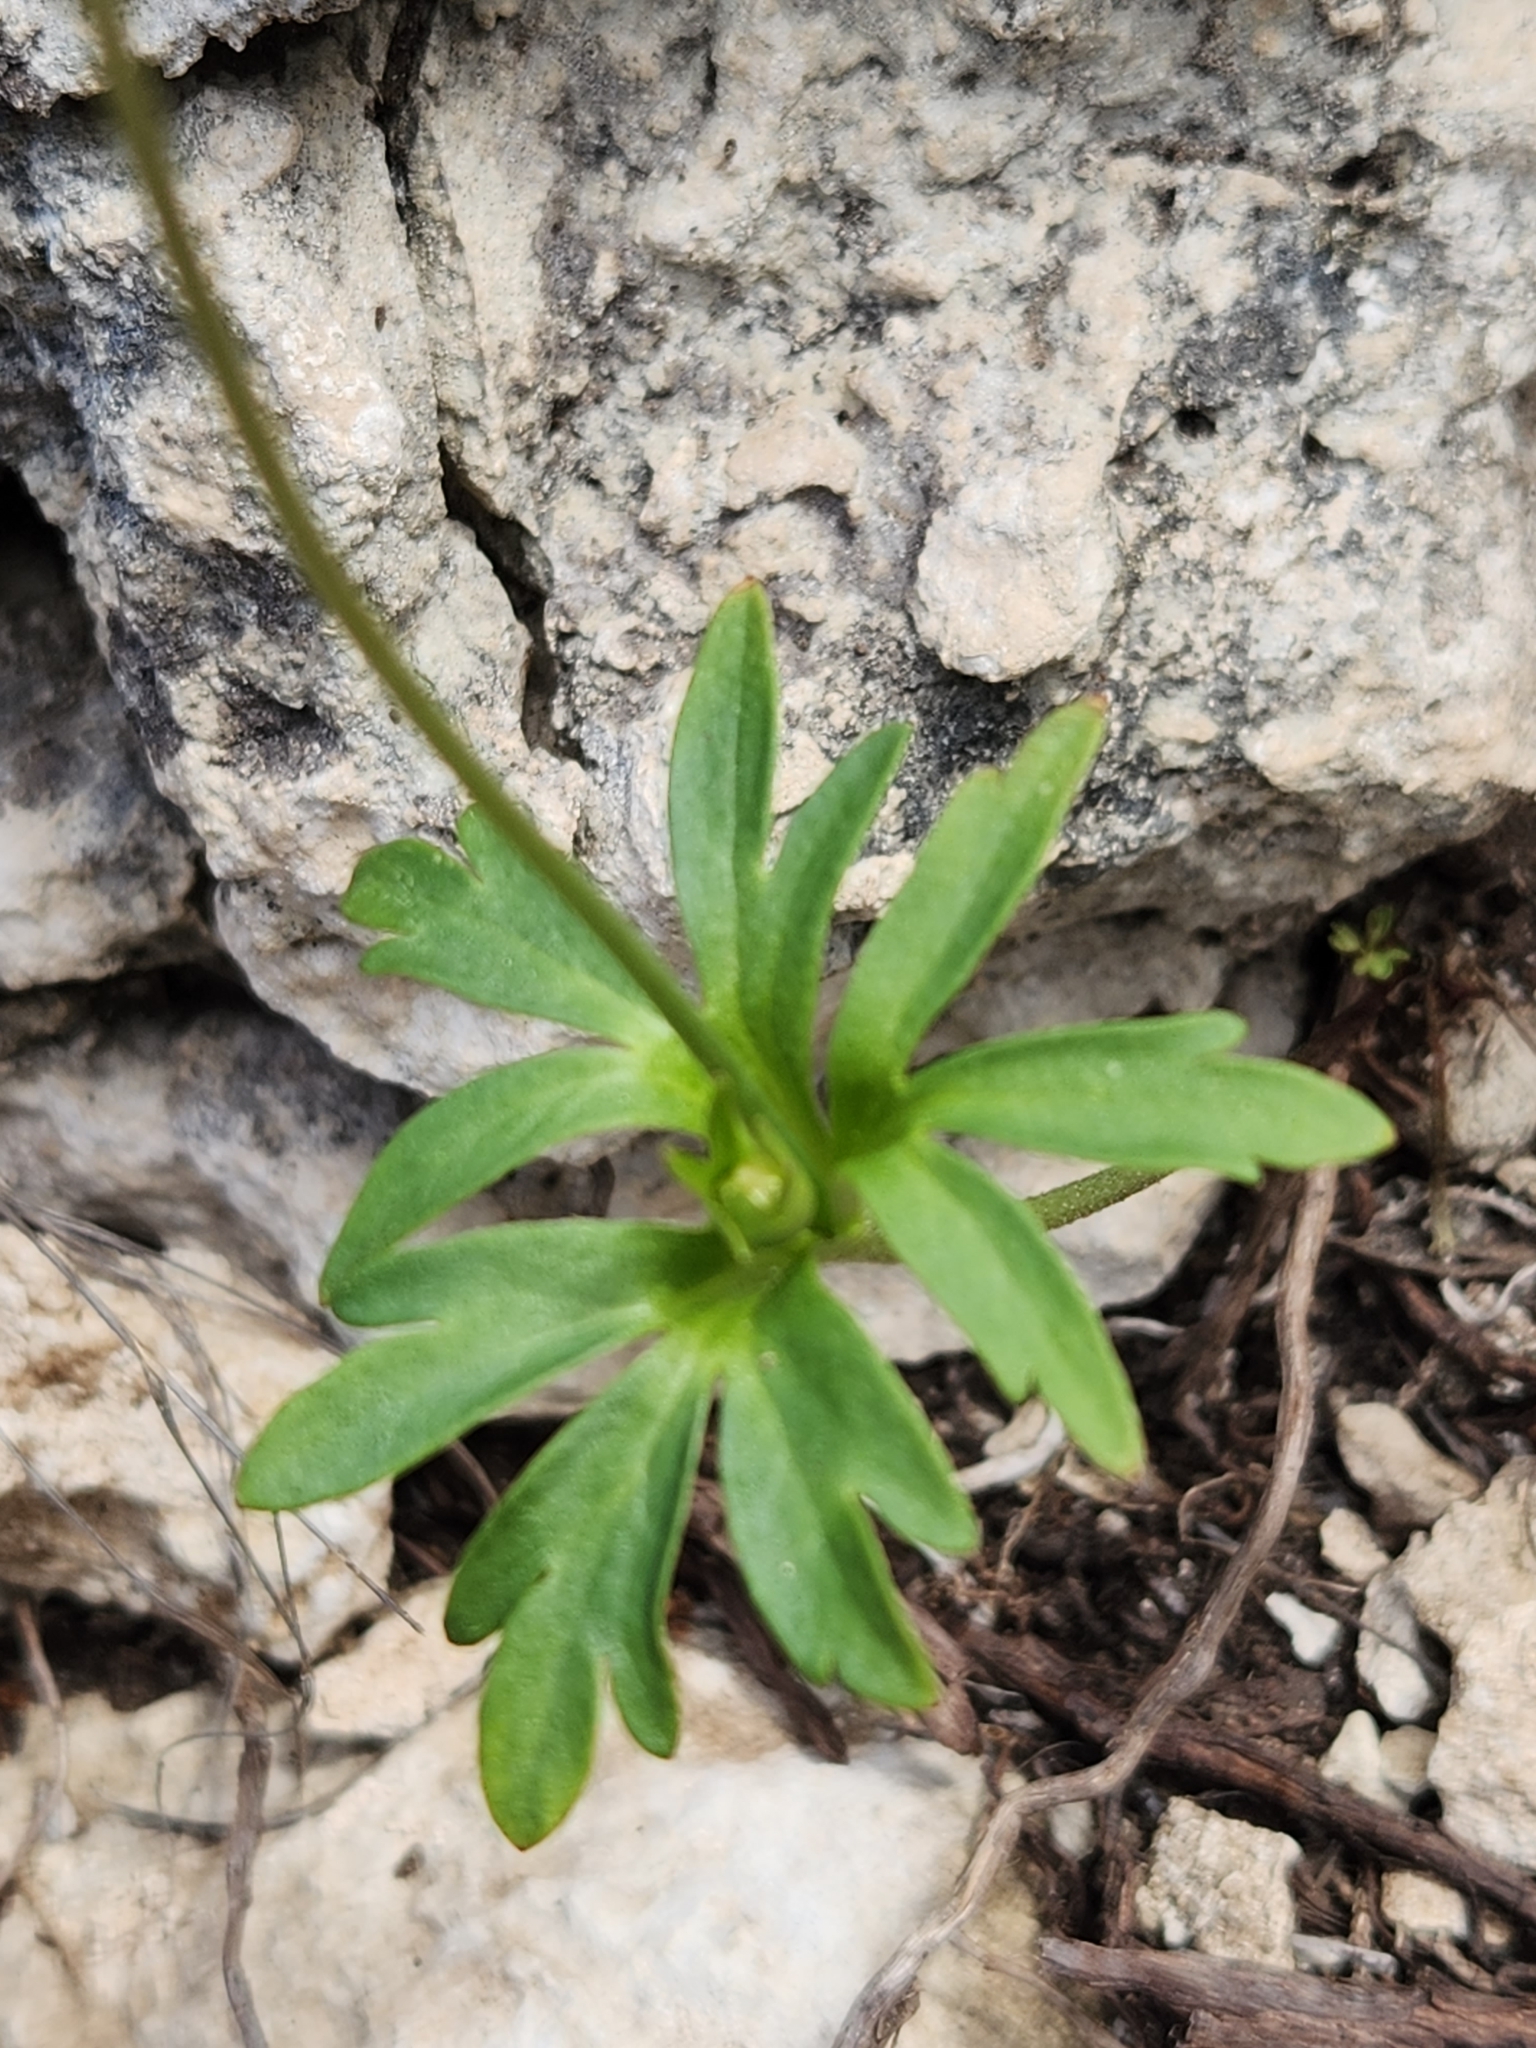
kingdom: Plantae
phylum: Tracheophyta
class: Magnoliopsida
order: Ranunculales
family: Ranunculaceae
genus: Anemone
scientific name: Anemone edwardsiana
